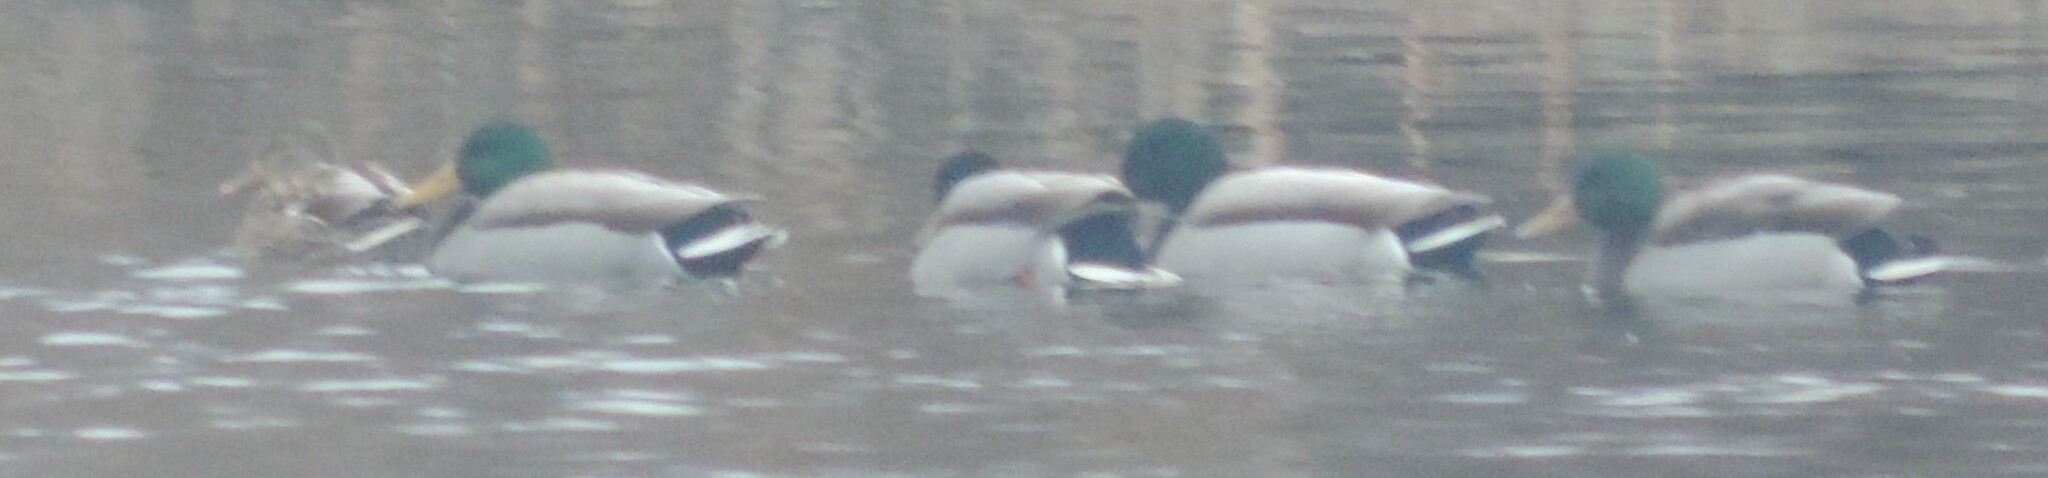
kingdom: Animalia
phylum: Chordata
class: Aves
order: Anseriformes
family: Anatidae
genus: Anas
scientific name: Anas platyrhynchos
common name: Mallard
